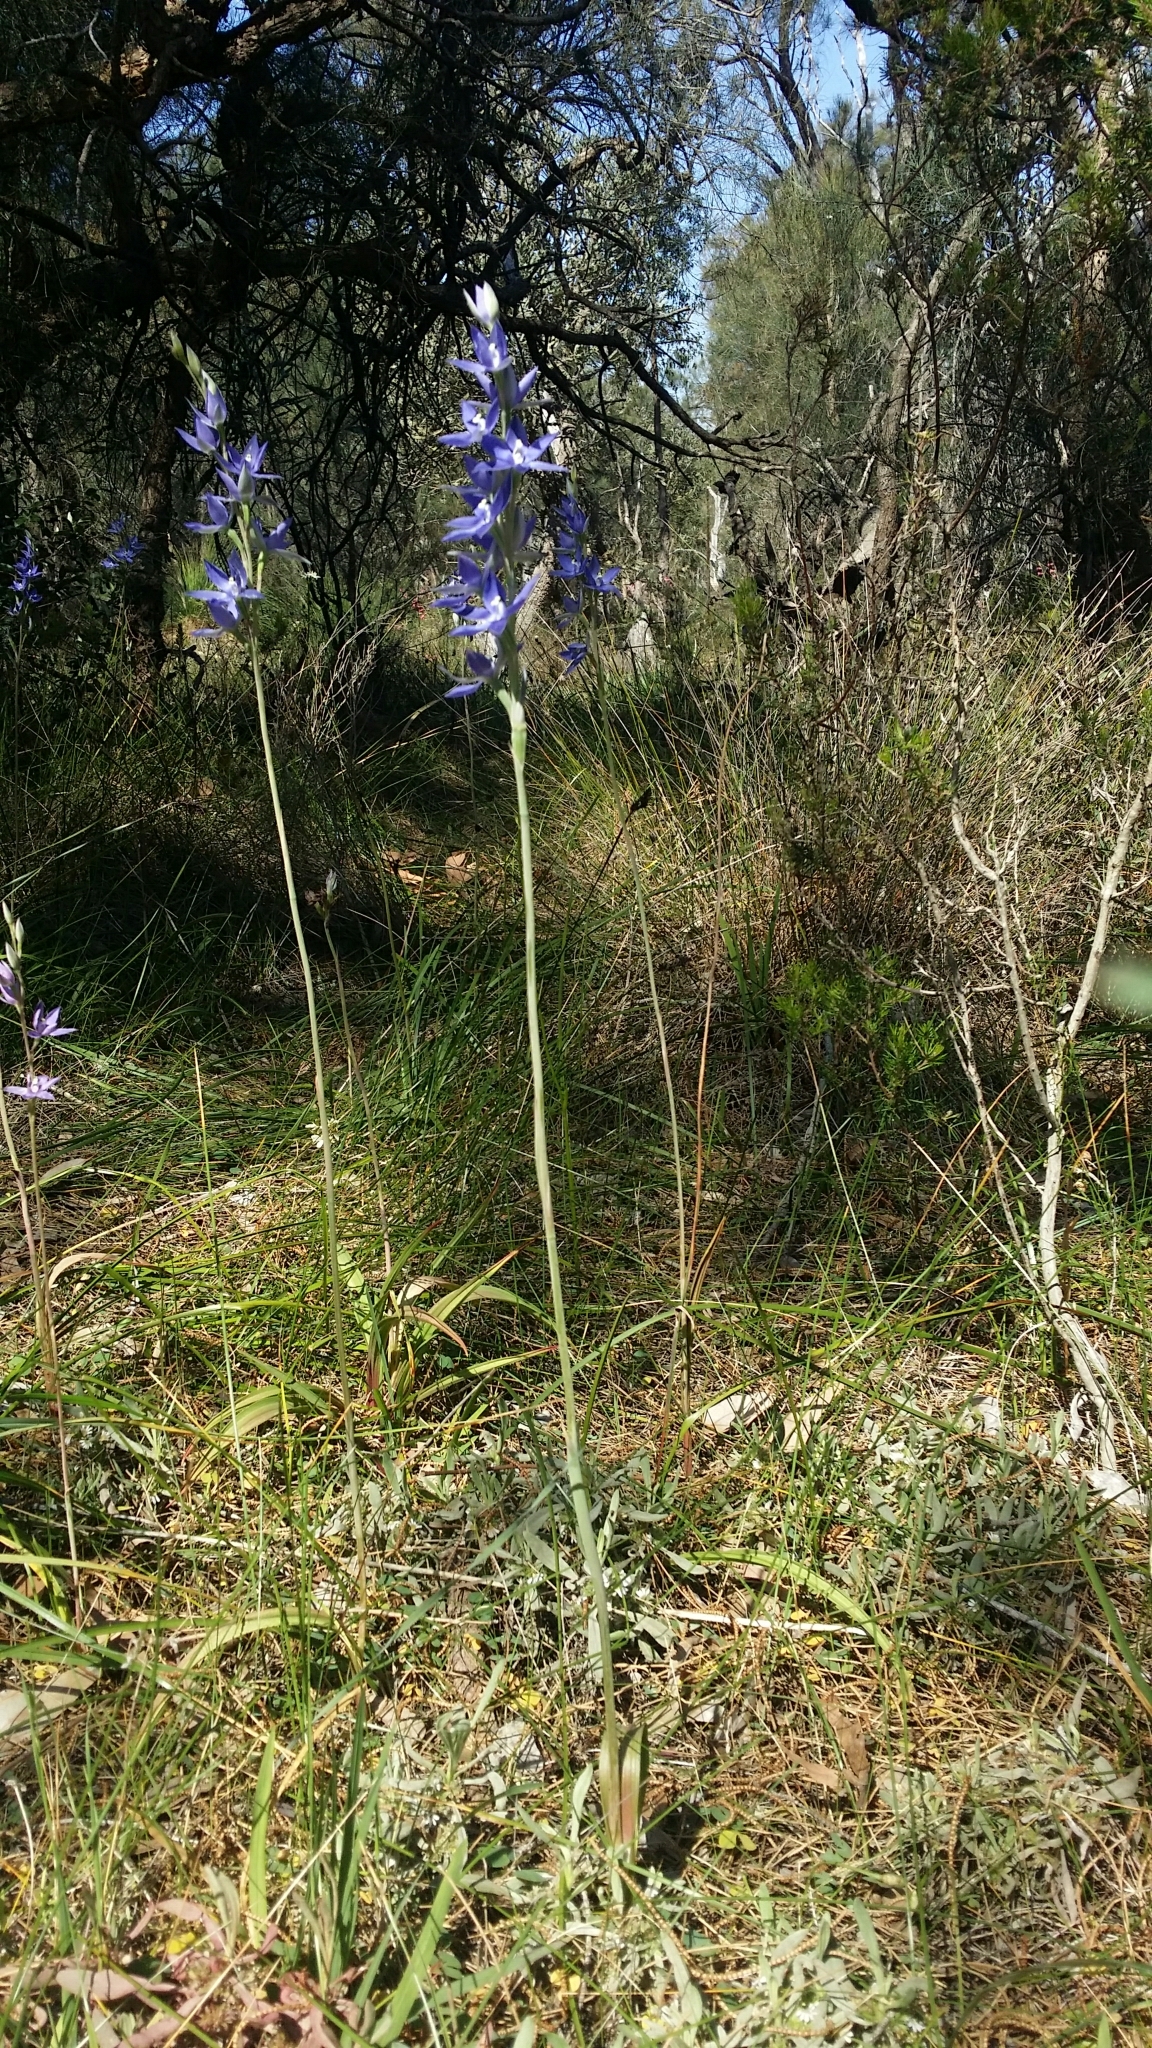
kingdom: Plantae
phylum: Tracheophyta
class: Liliopsida
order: Asparagales
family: Orchidaceae
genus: Thelymitra
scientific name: Thelymitra graminea
